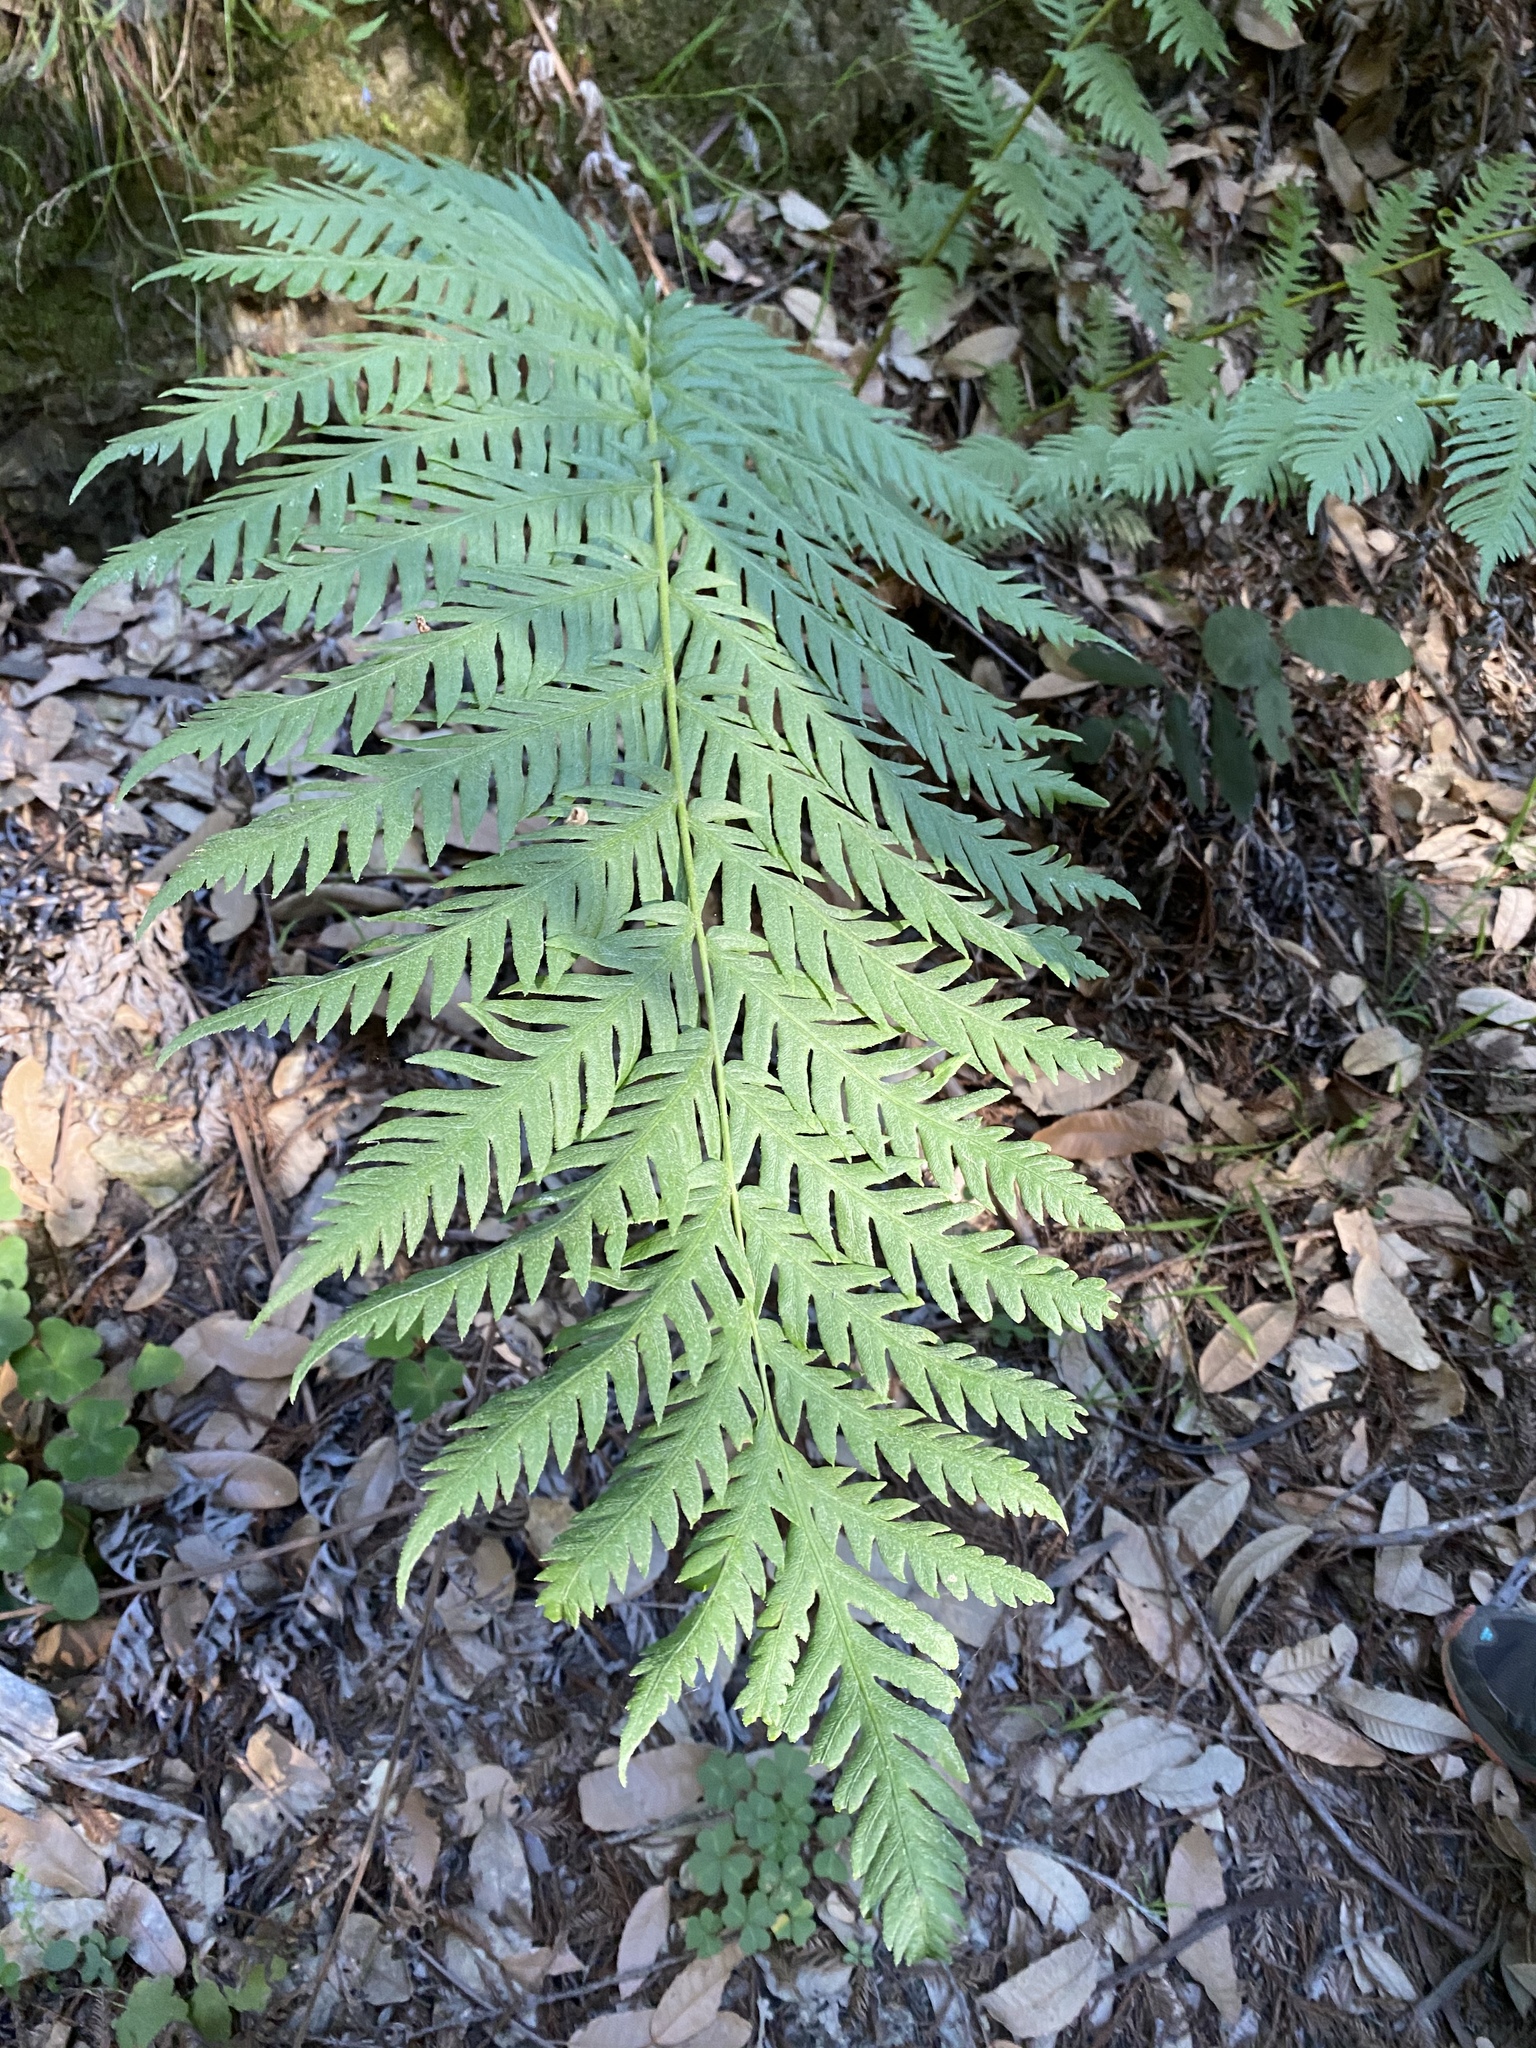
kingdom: Plantae
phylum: Tracheophyta
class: Polypodiopsida
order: Polypodiales
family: Blechnaceae
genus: Woodwardia
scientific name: Woodwardia fimbriata
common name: Giant chain fern
